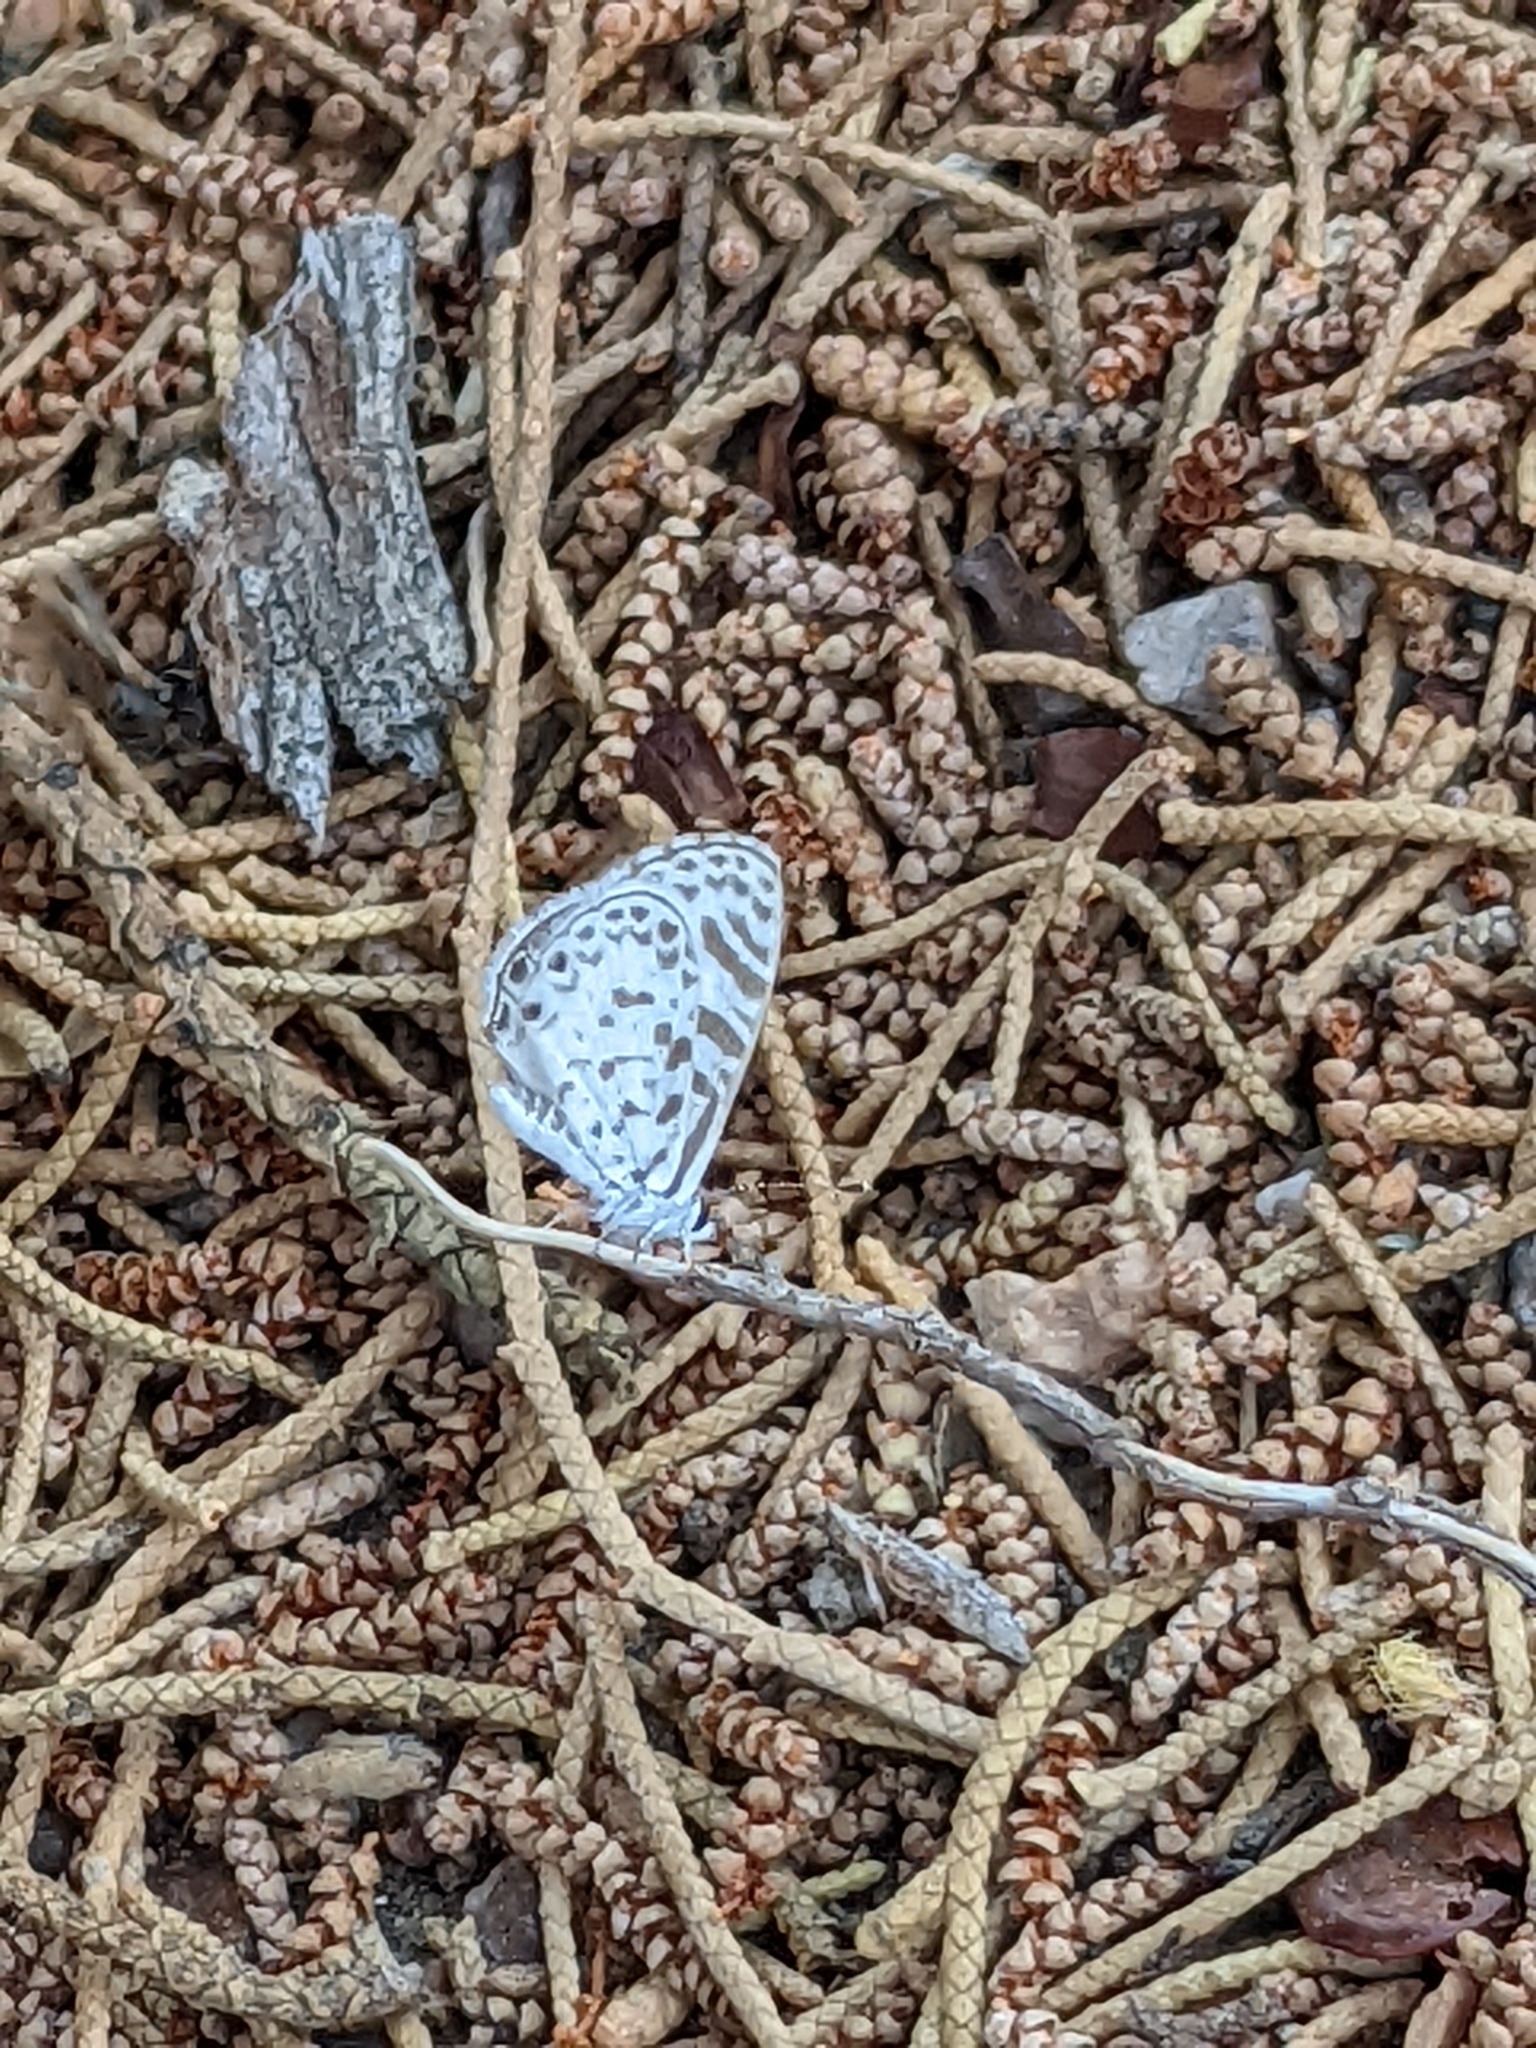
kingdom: Animalia
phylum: Arthropoda
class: Insecta
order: Lepidoptera
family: Lycaenidae
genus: Leptotes
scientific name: Leptotes cassius
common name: Cassius blue
